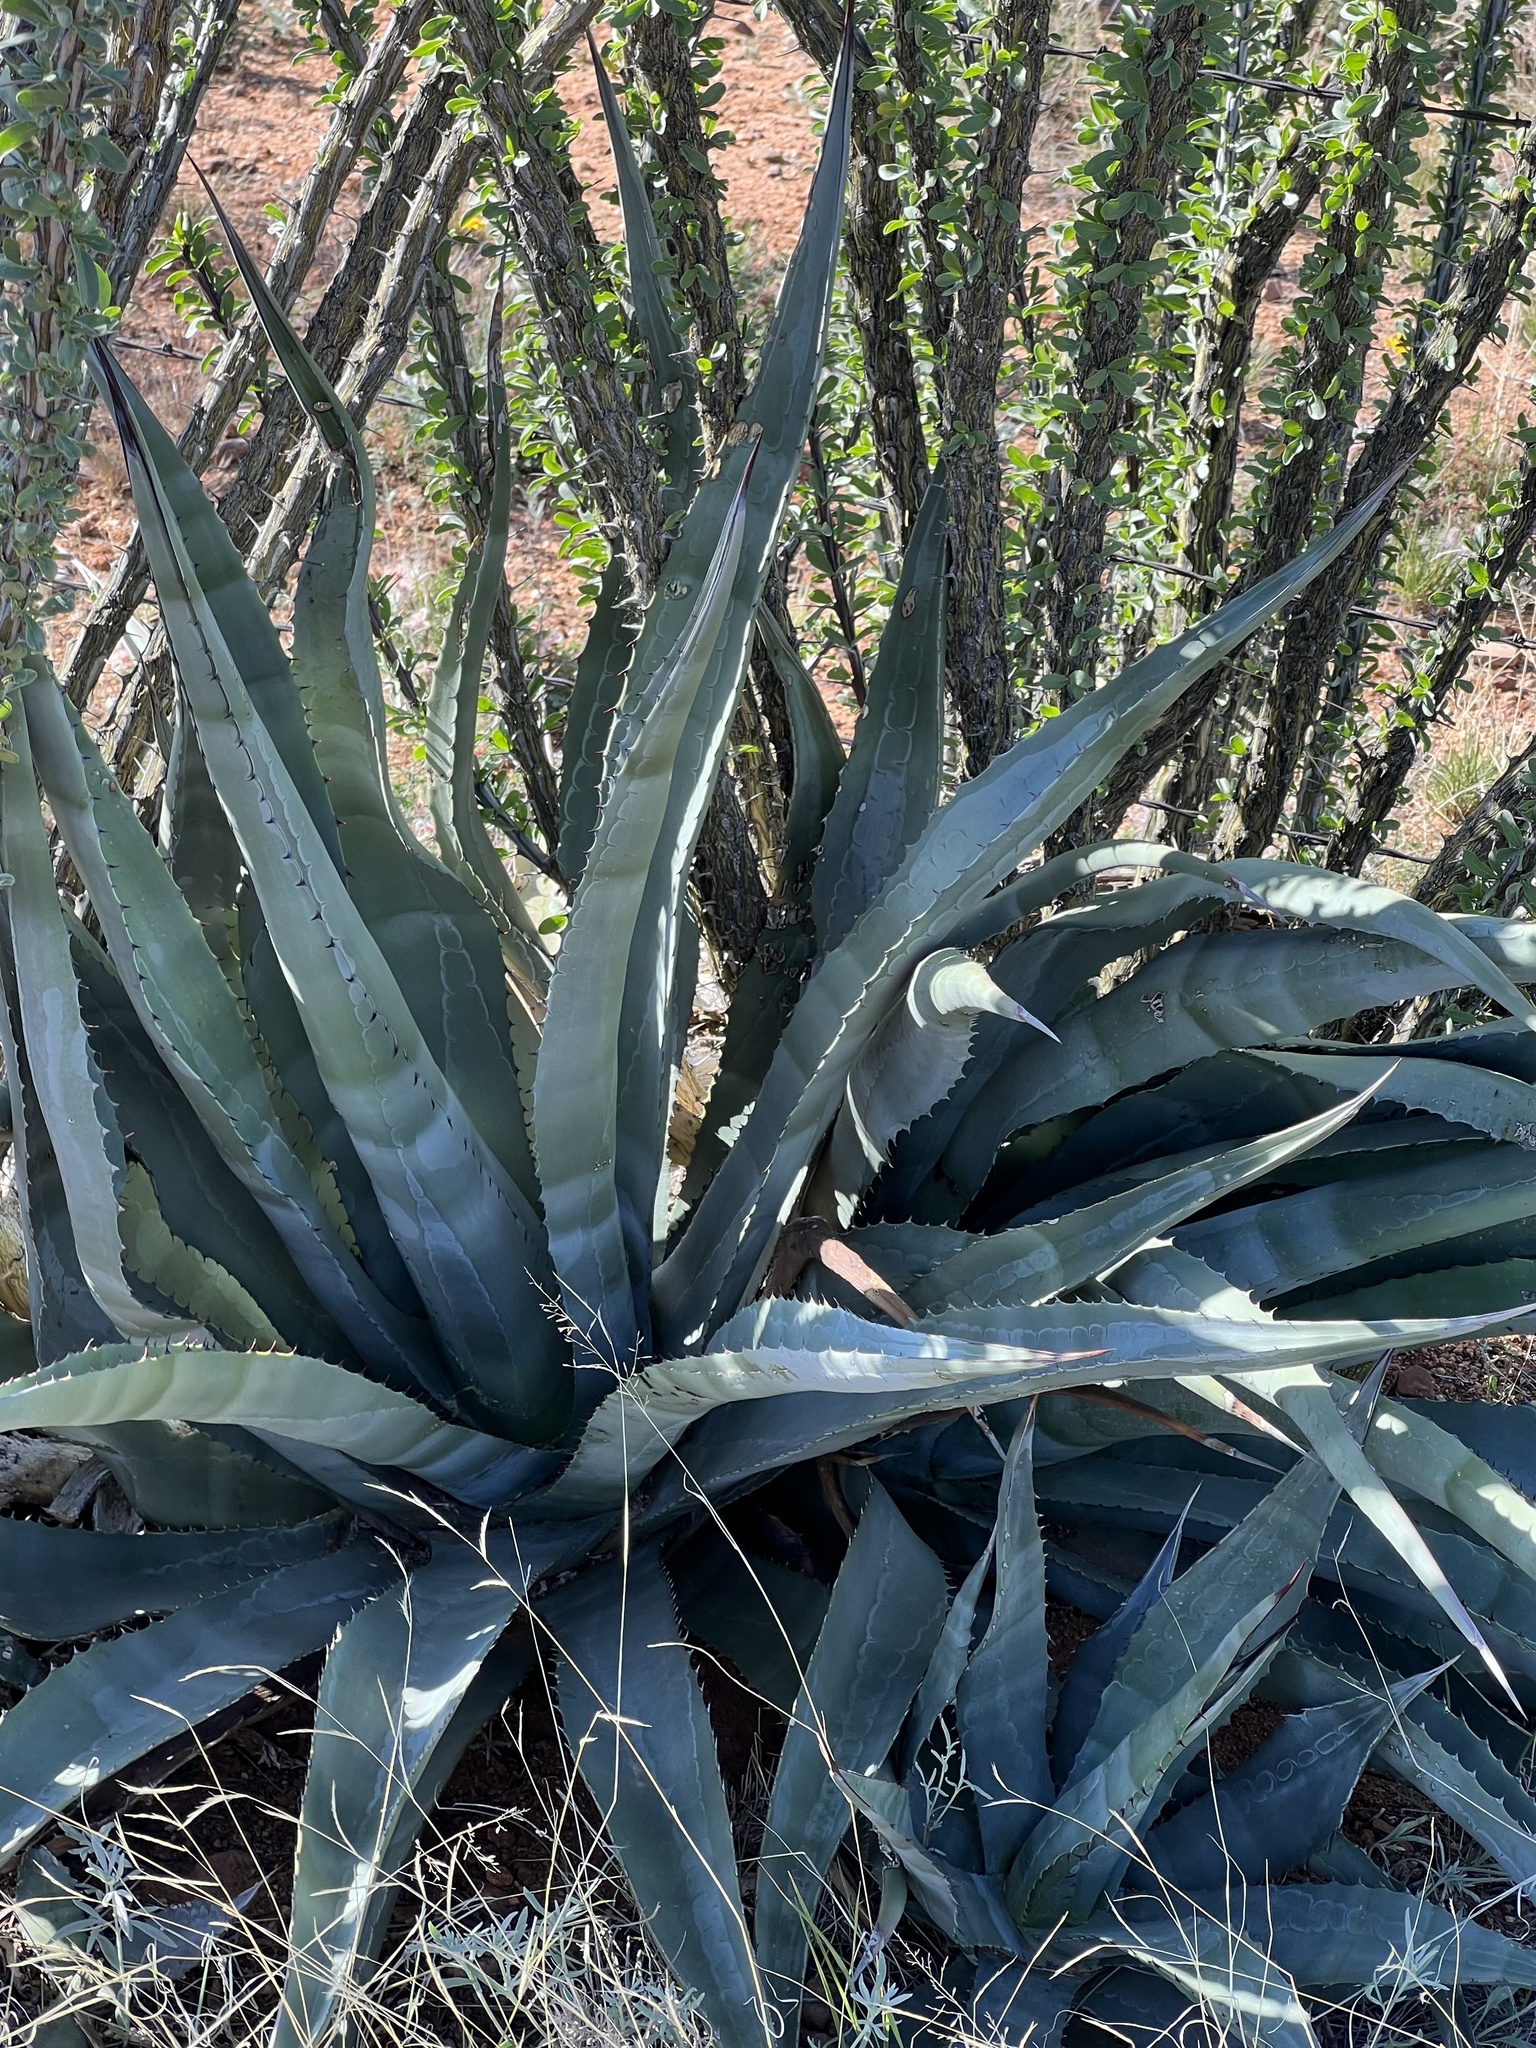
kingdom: Plantae
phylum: Tracheophyta
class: Liliopsida
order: Asparagales
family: Asparagaceae
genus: Agave
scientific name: Agave palmeri
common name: Palmer agave
